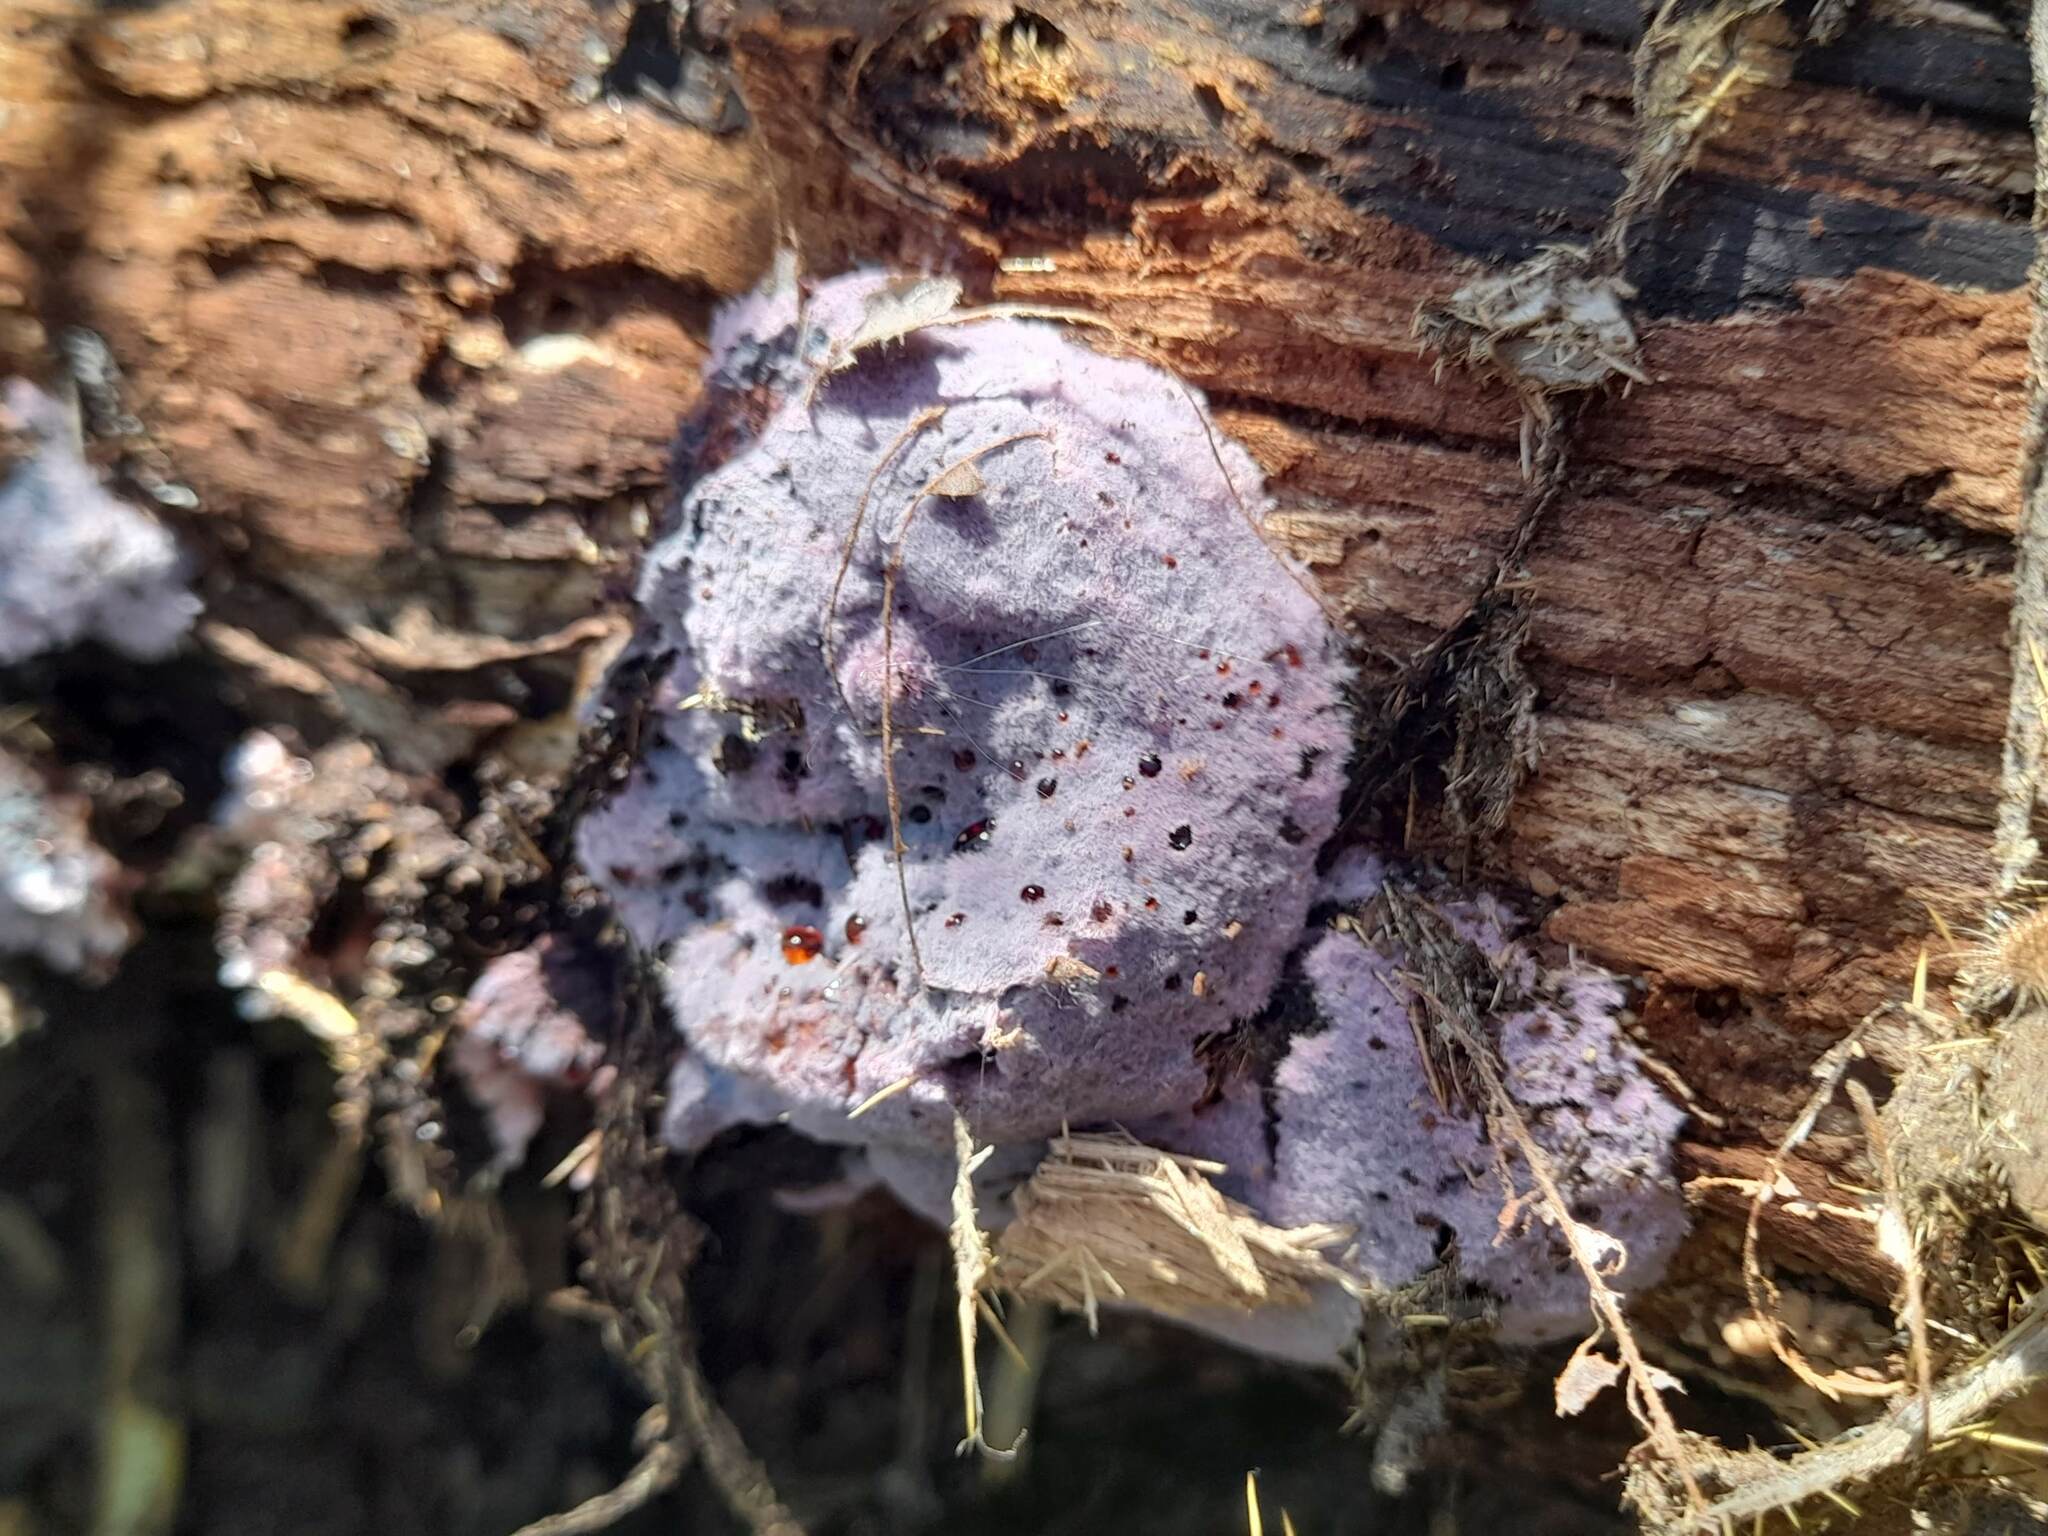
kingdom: Fungi
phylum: Basidiomycota
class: Agaricomycetes
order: Corticiales
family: Punctulariaceae
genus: Punctularia
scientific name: Punctularia atropurpurascens
